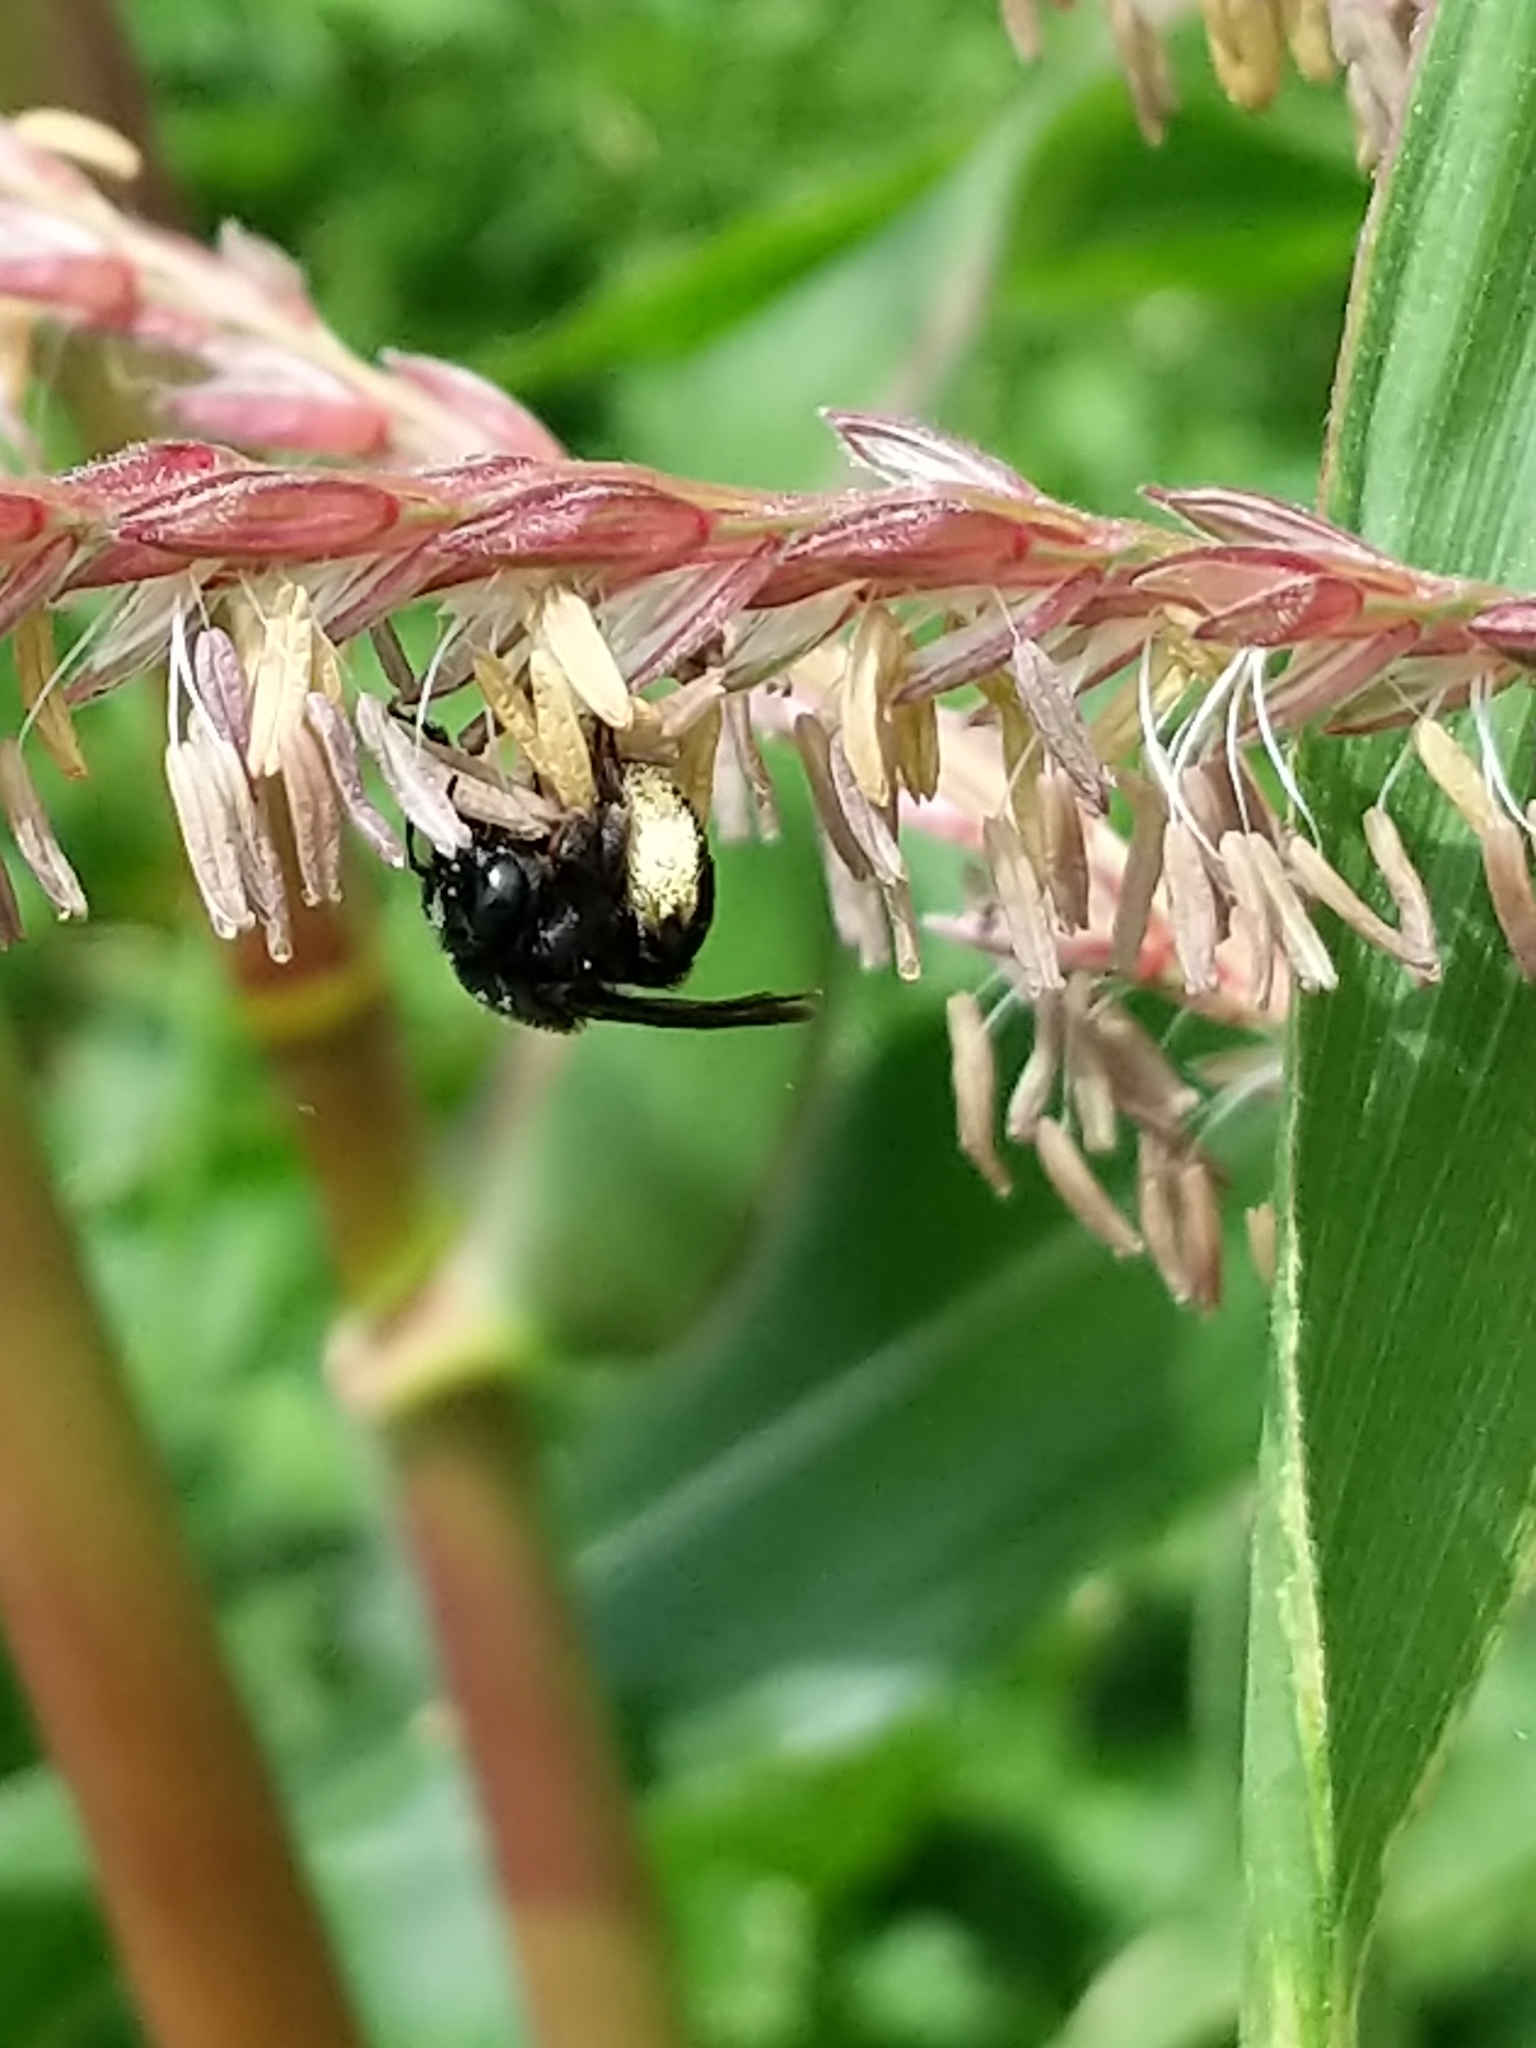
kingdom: Animalia
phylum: Arthropoda
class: Insecta
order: Hymenoptera
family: Apidae
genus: Melissodes
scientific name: Melissodes bimaculatus
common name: Two-spotted long-horned bee
